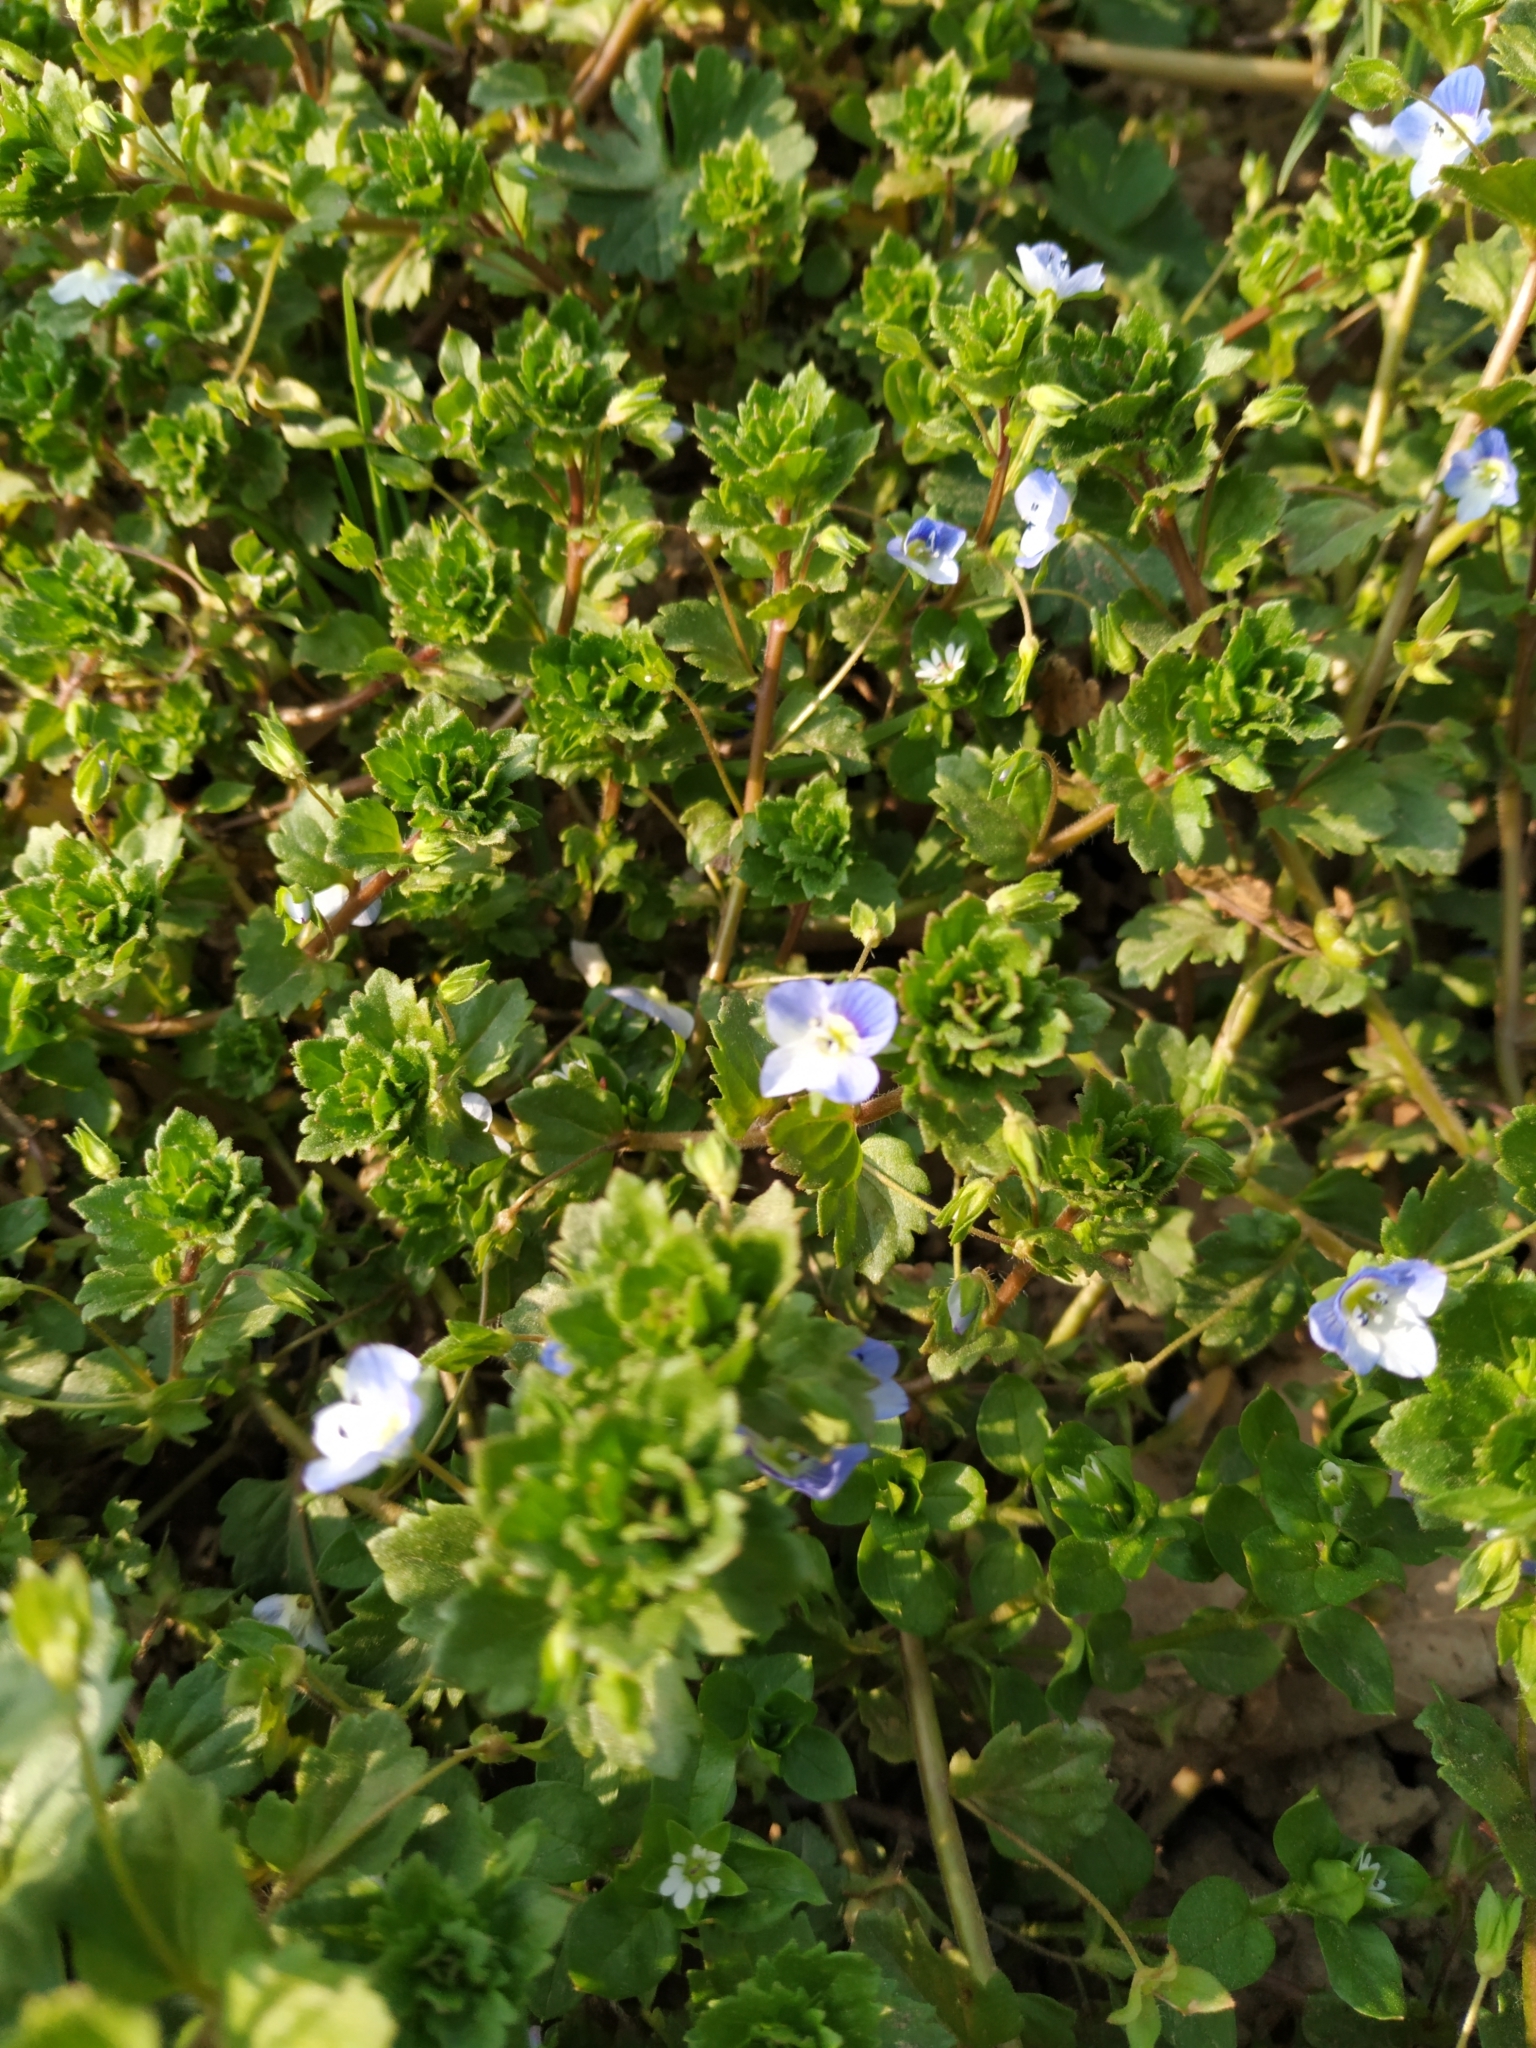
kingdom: Plantae
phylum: Tracheophyta
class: Magnoliopsida
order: Lamiales
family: Plantaginaceae
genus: Veronica
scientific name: Veronica persica
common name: Common field-speedwell
